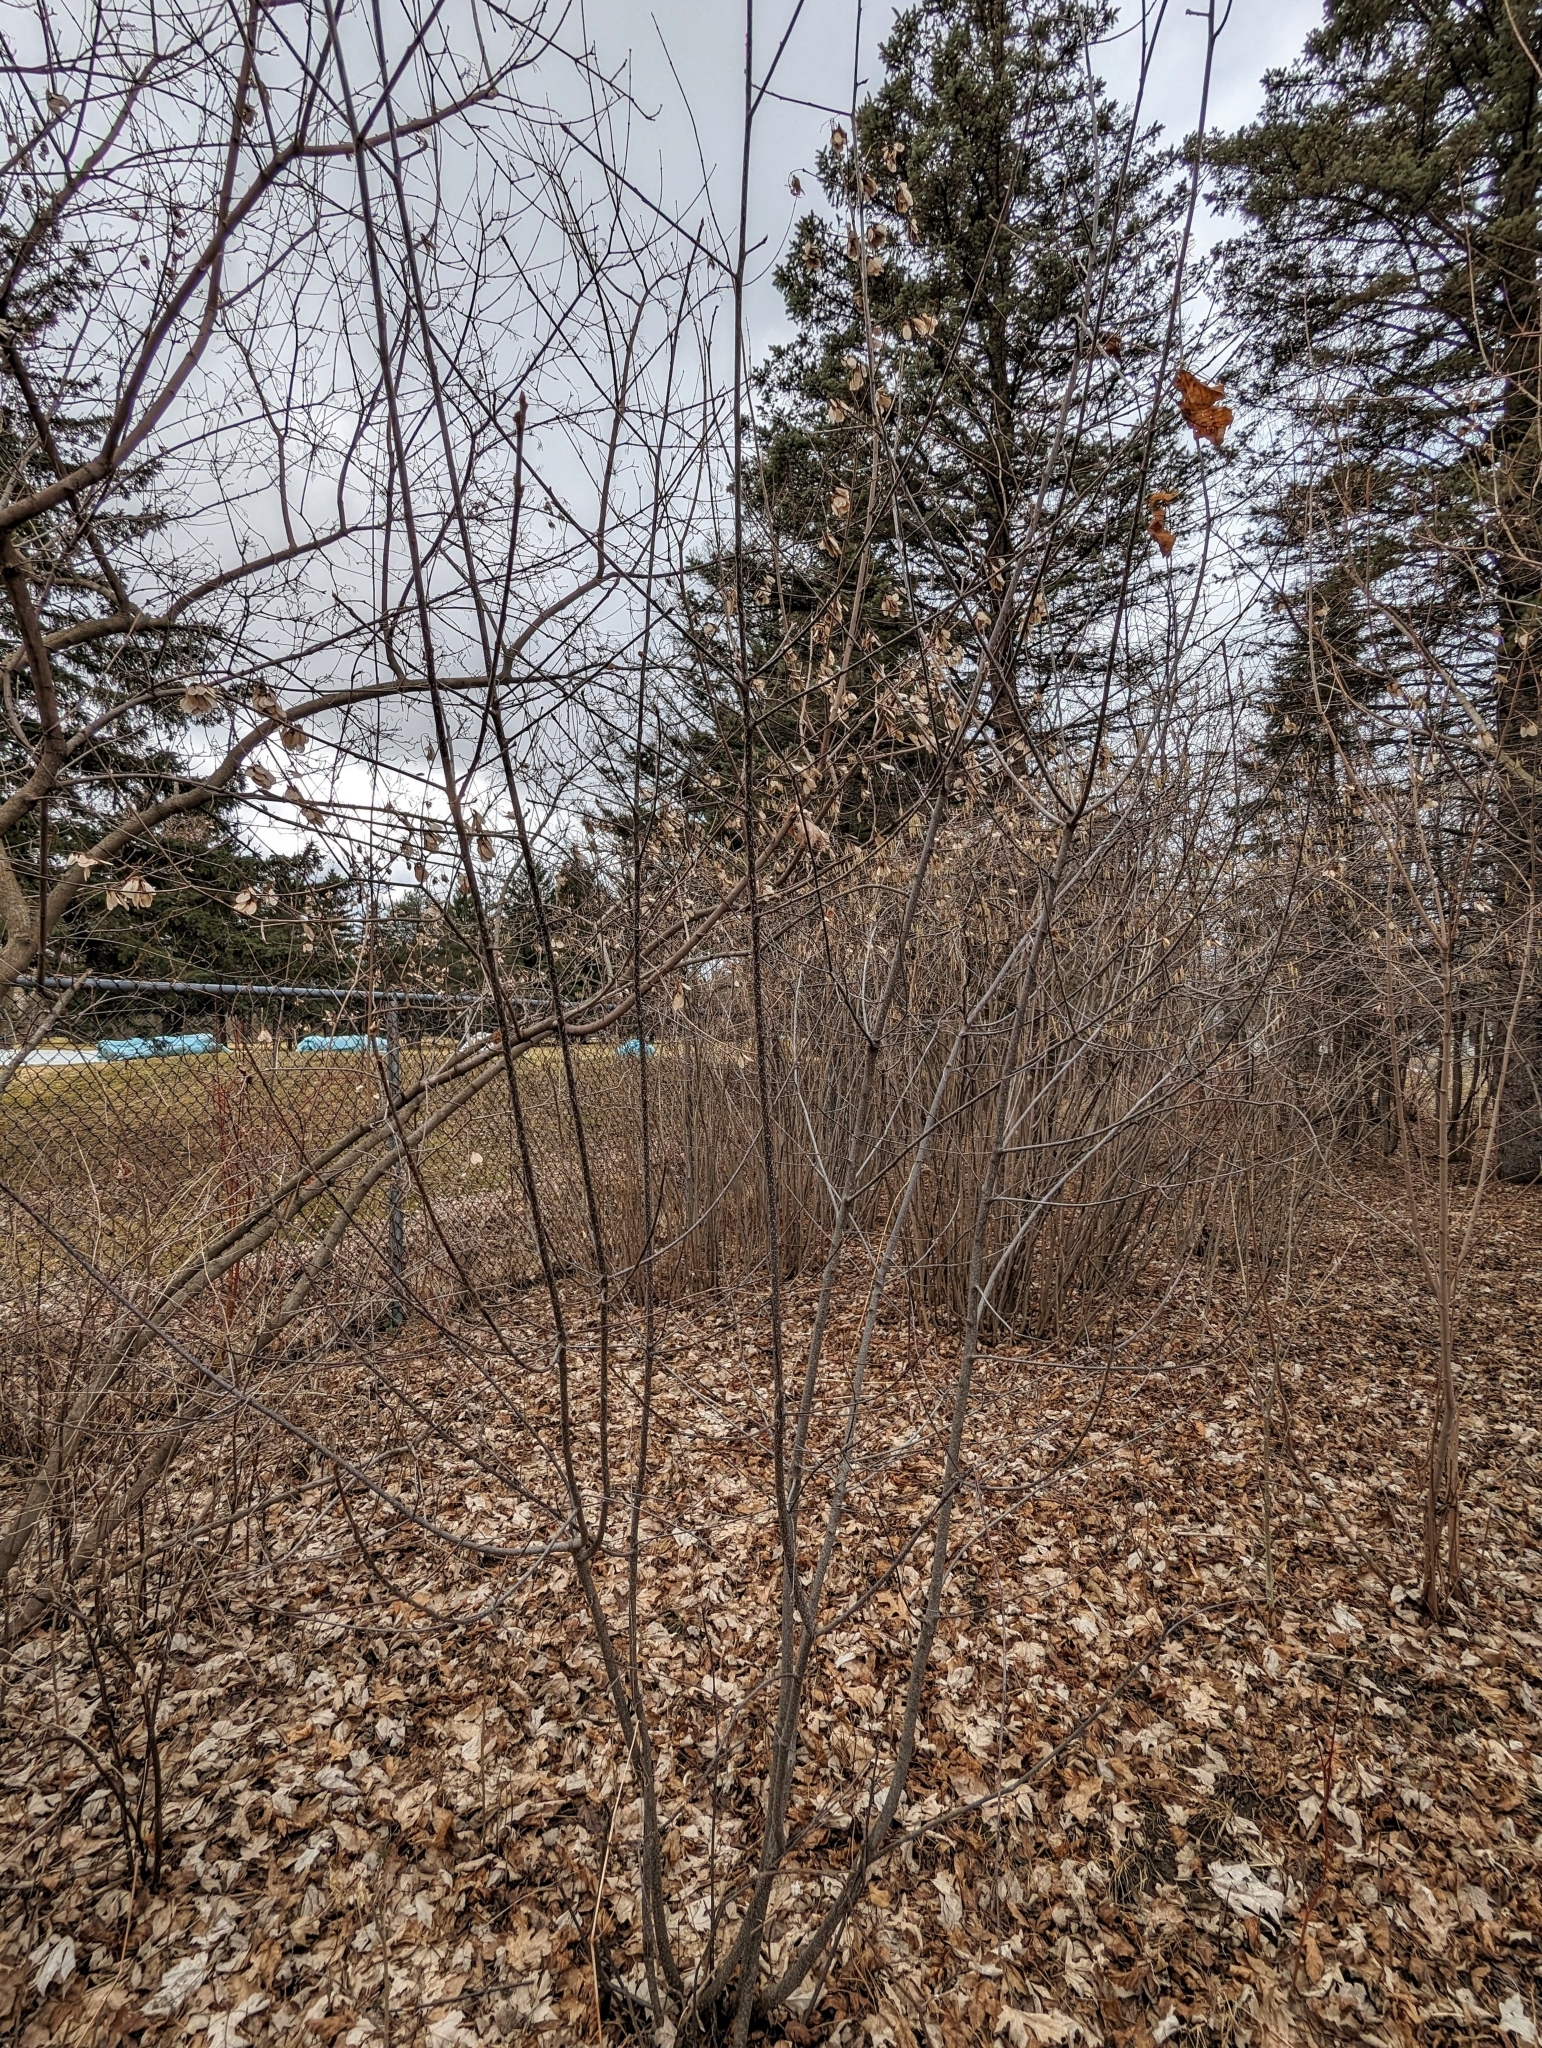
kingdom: Plantae
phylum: Tracheophyta
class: Magnoliopsida
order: Rosales
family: Rhamnaceae
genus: Frangula
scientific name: Frangula alnus
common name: Alder buckthorn
